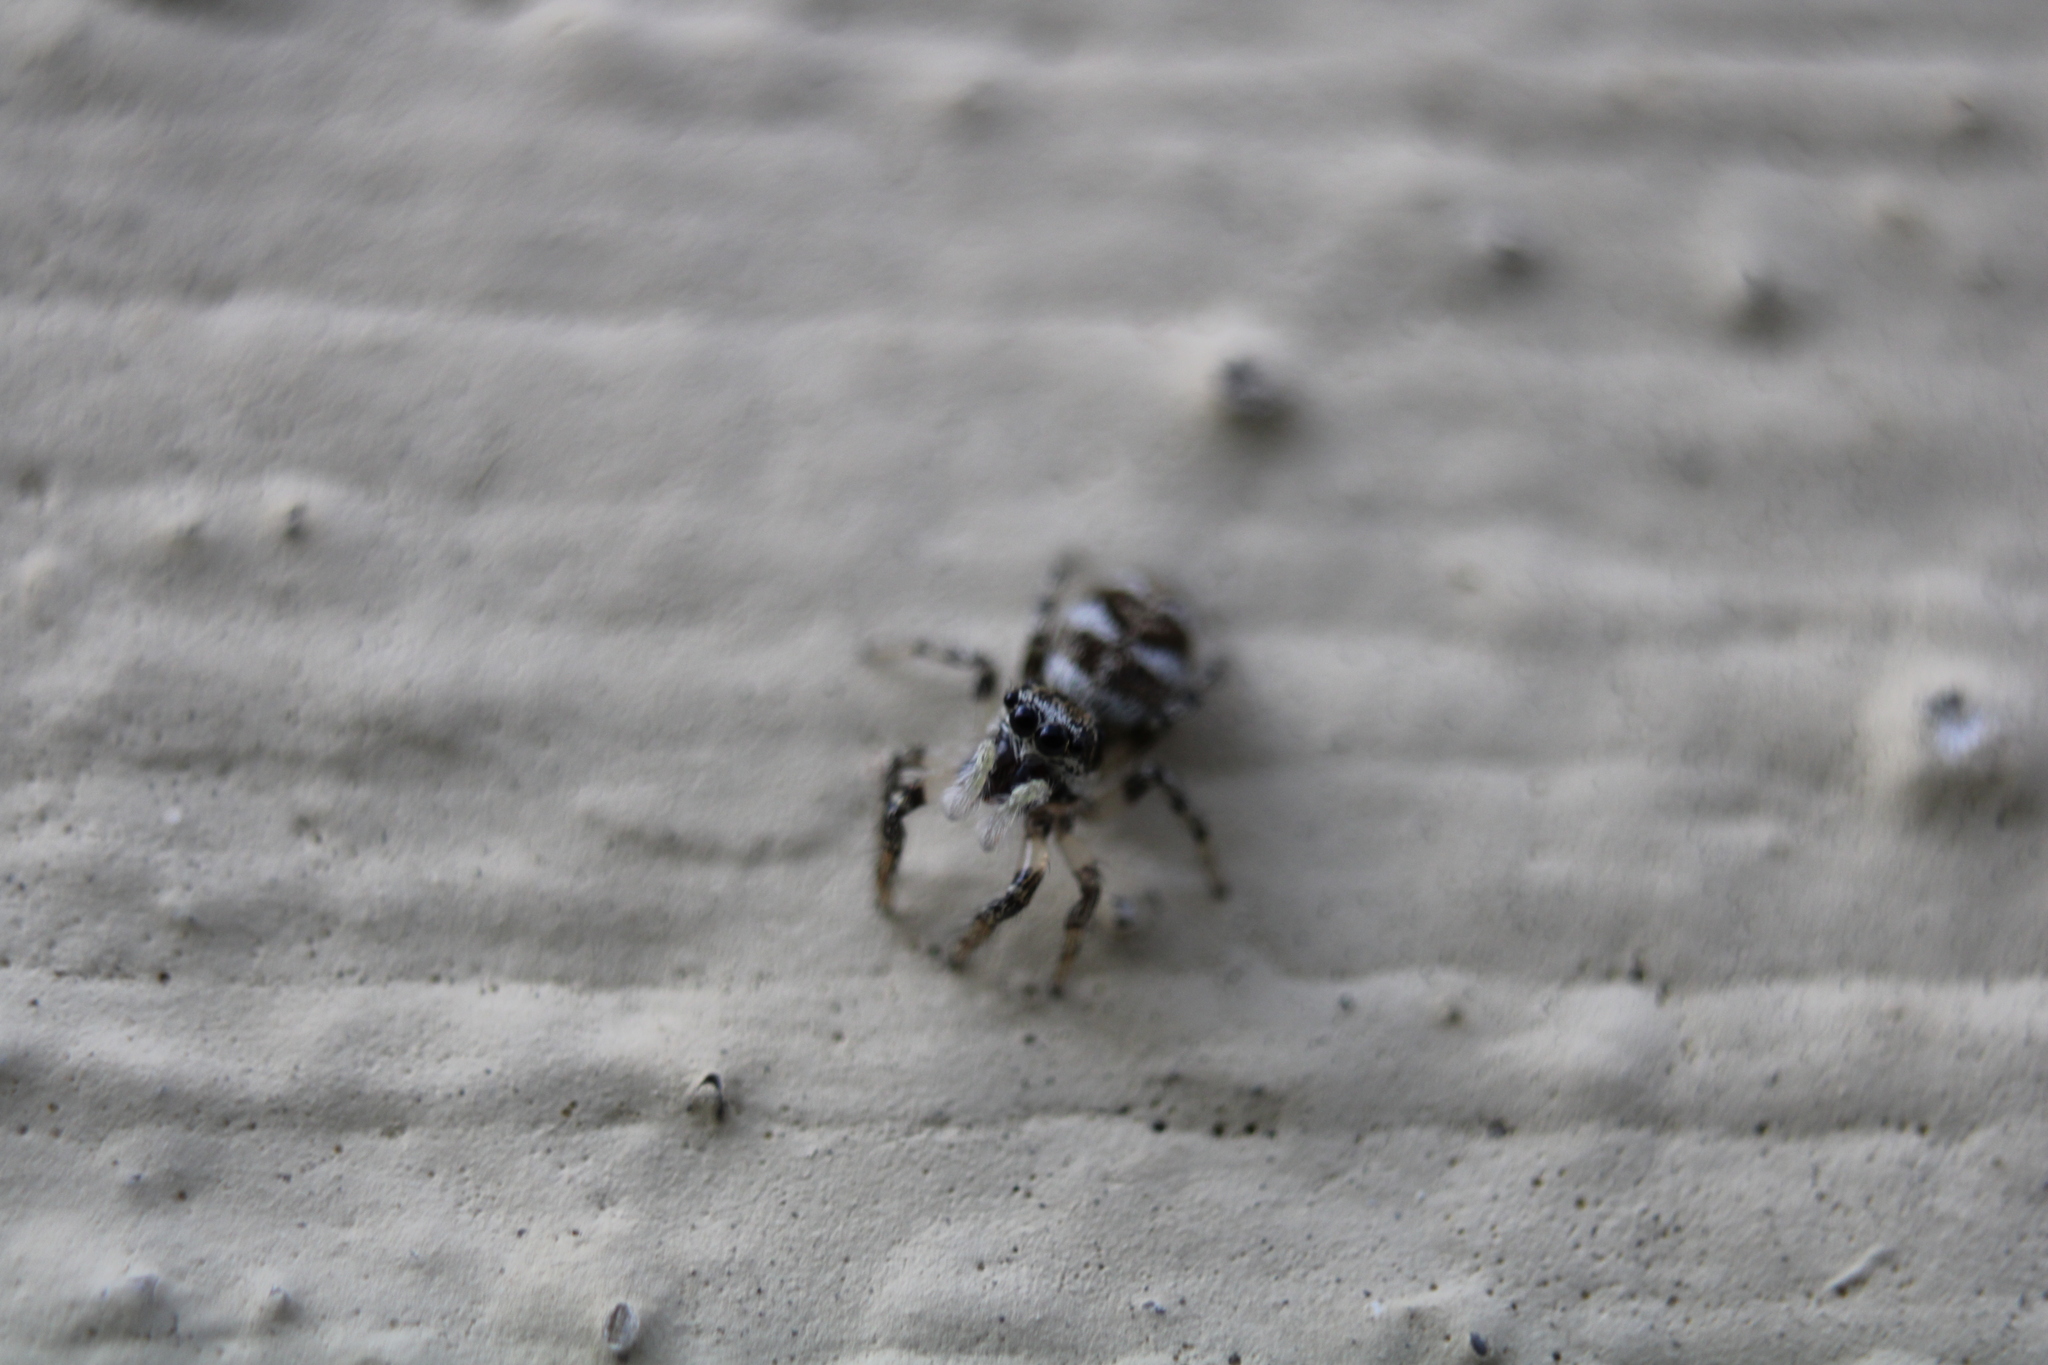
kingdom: Animalia
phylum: Arthropoda
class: Arachnida
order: Araneae
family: Salticidae
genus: Salticus
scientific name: Salticus scenicus
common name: Zebra jumper
